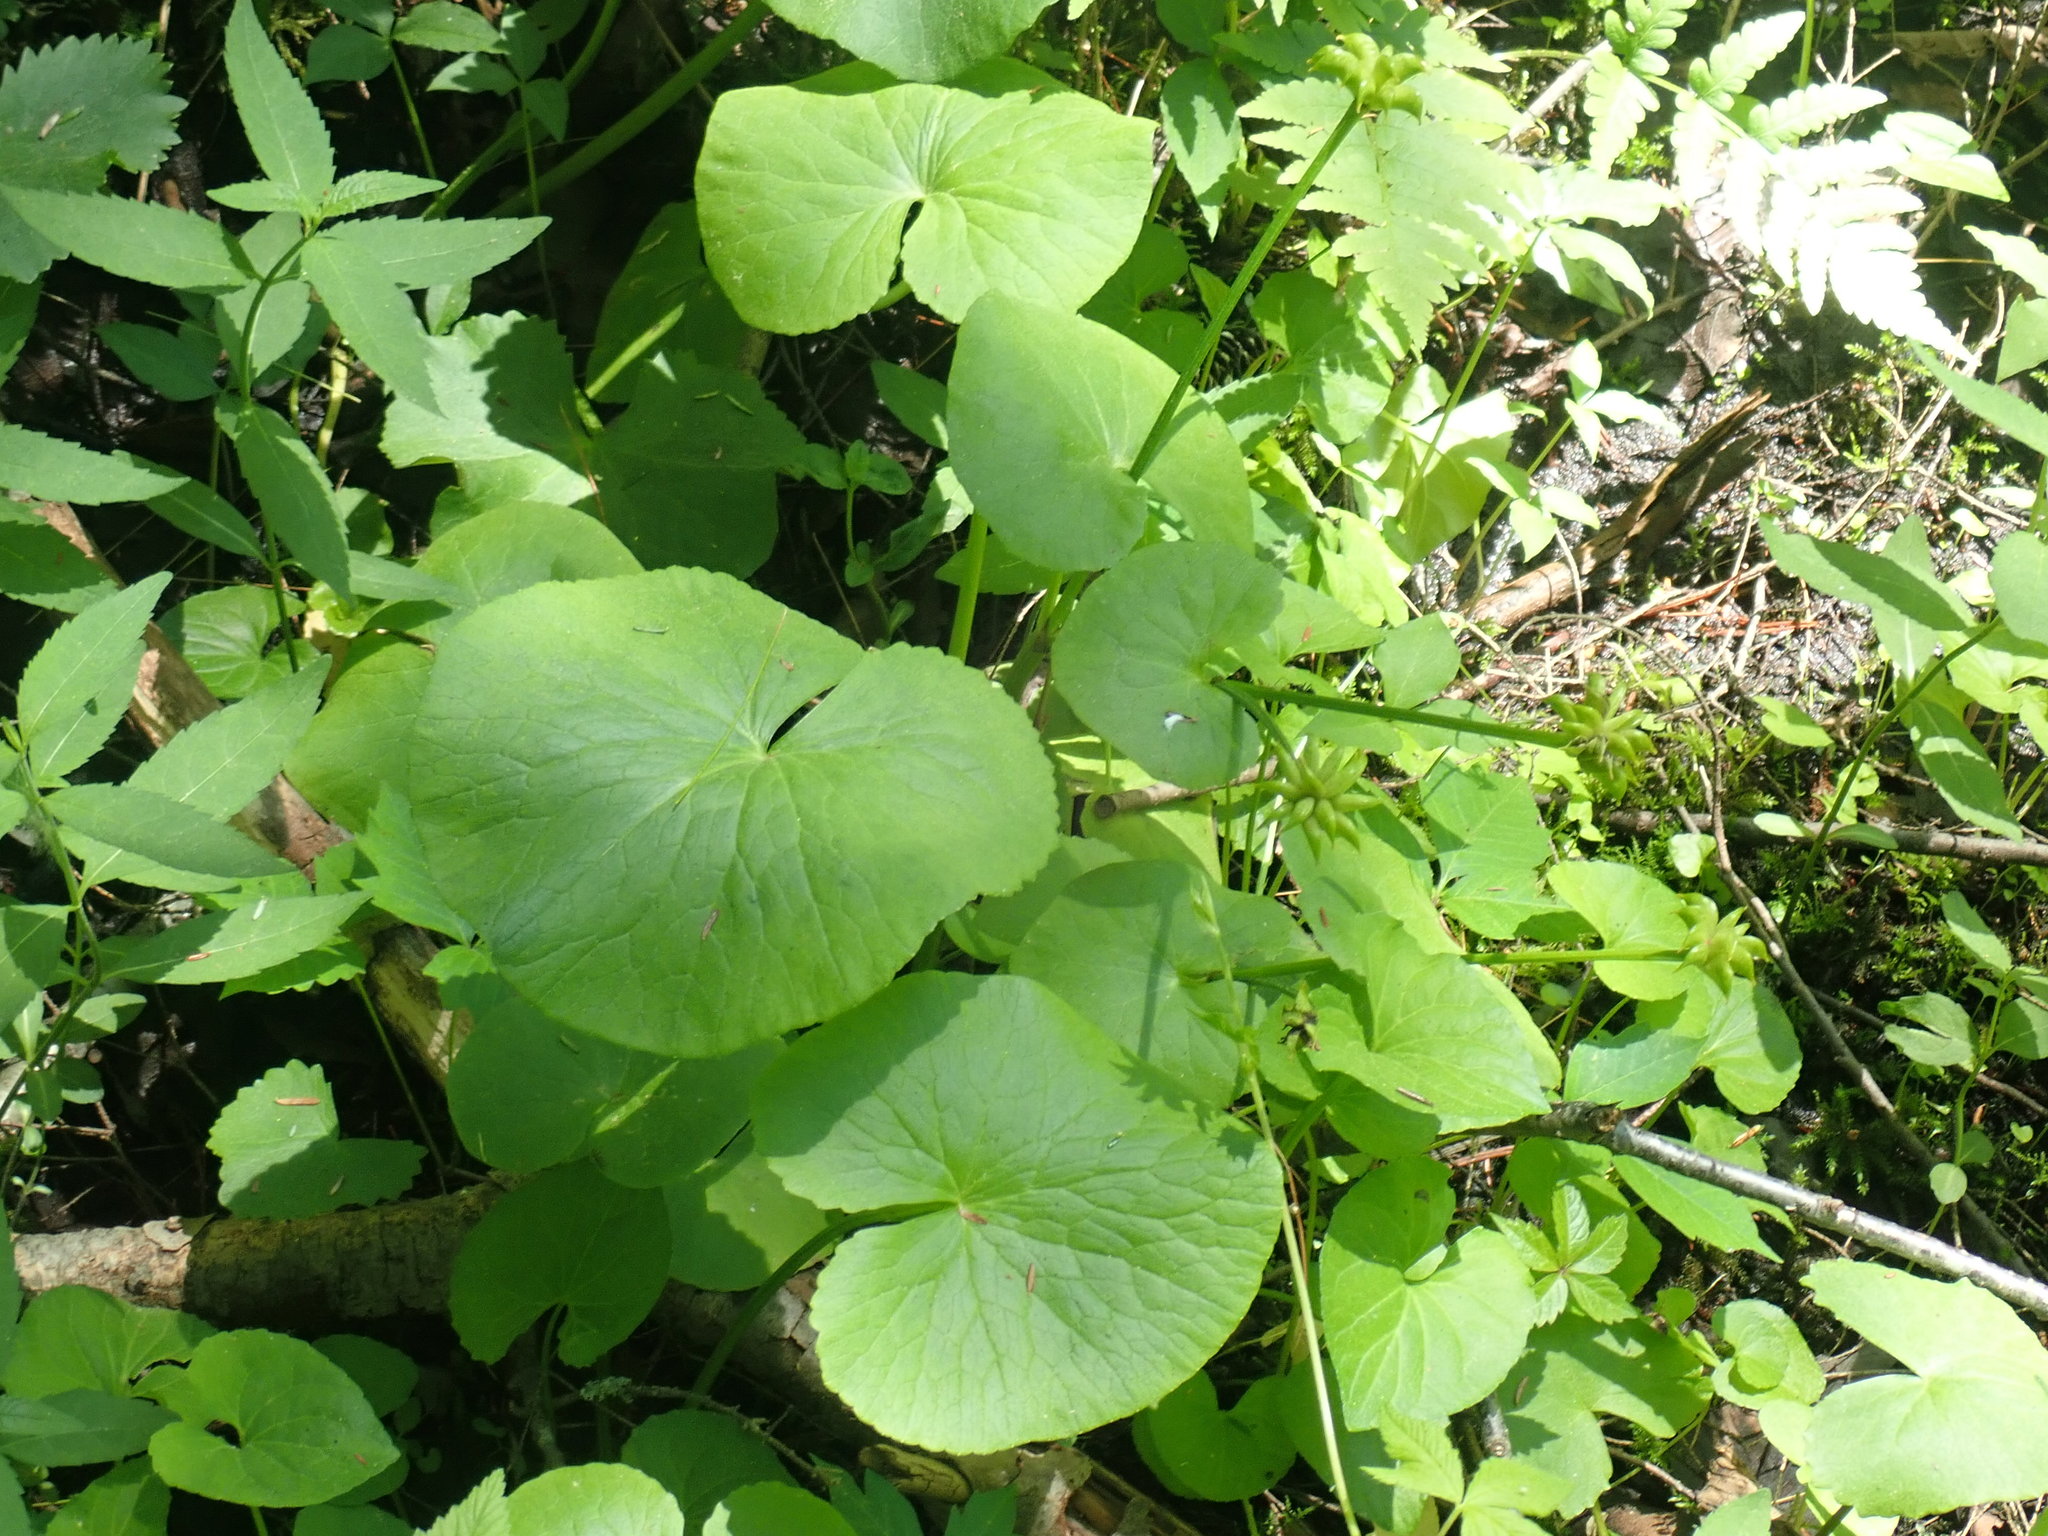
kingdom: Plantae
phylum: Tracheophyta
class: Magnoliopsida
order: Ranunculales
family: Ranunculaceae
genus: Caltha
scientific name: Caltha palustris
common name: Marsh marigold
